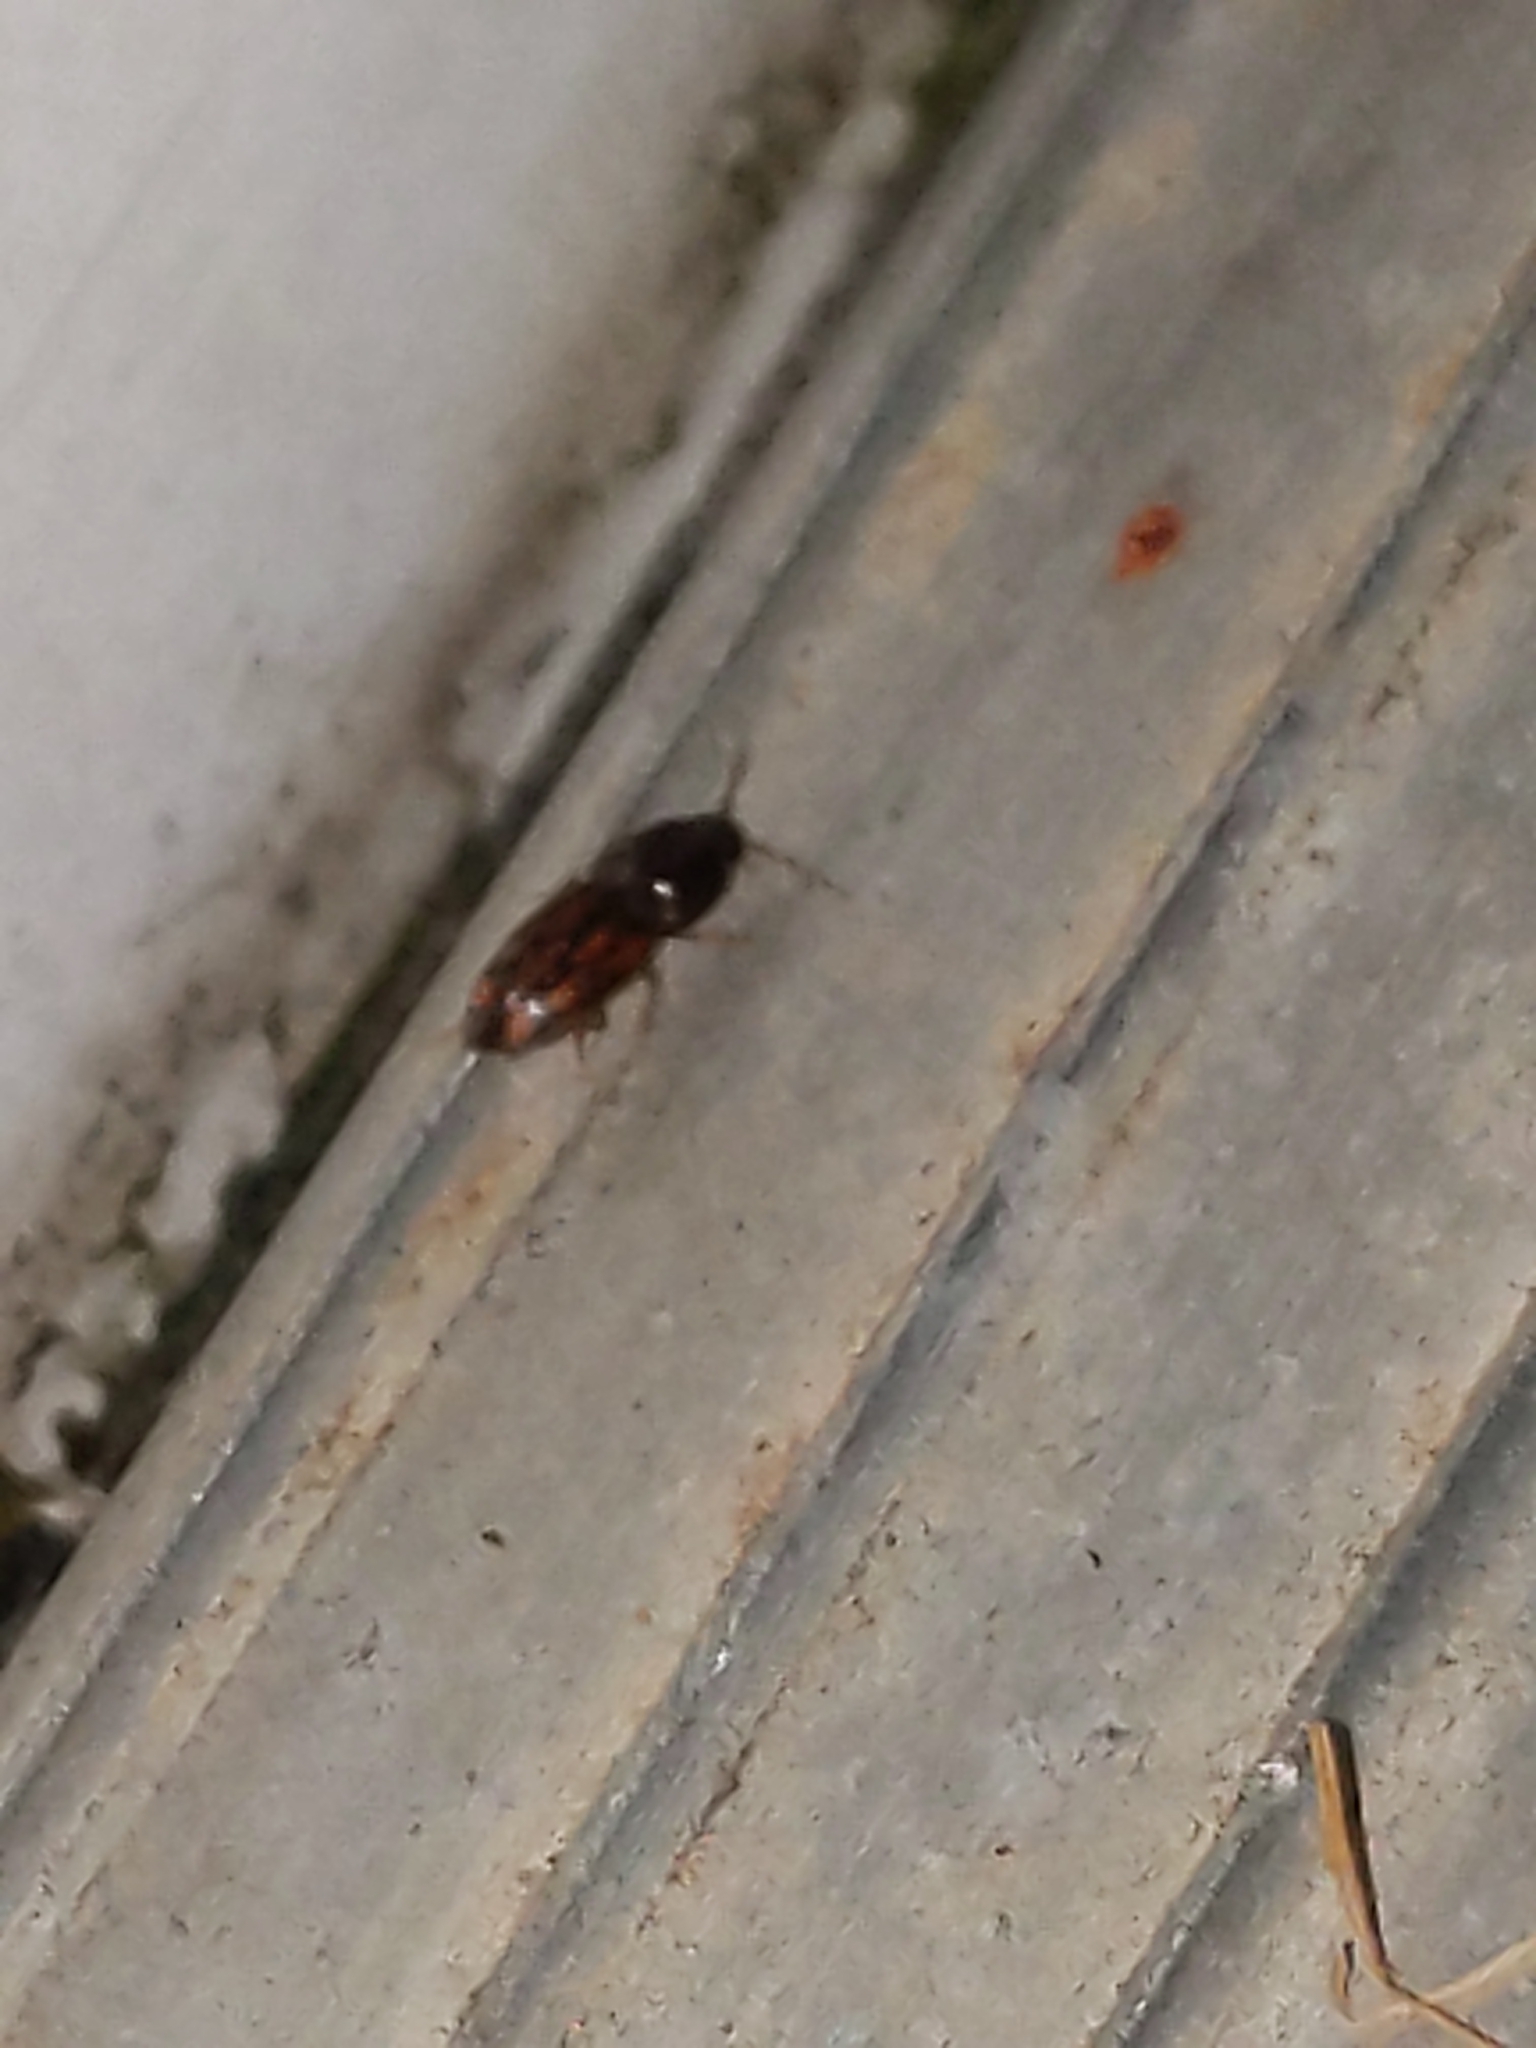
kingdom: Animalia
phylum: Arthropoda
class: Insecta
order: Coleoptera
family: Elateridae
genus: Monocrepidius
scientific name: Monocrepidius bellus
